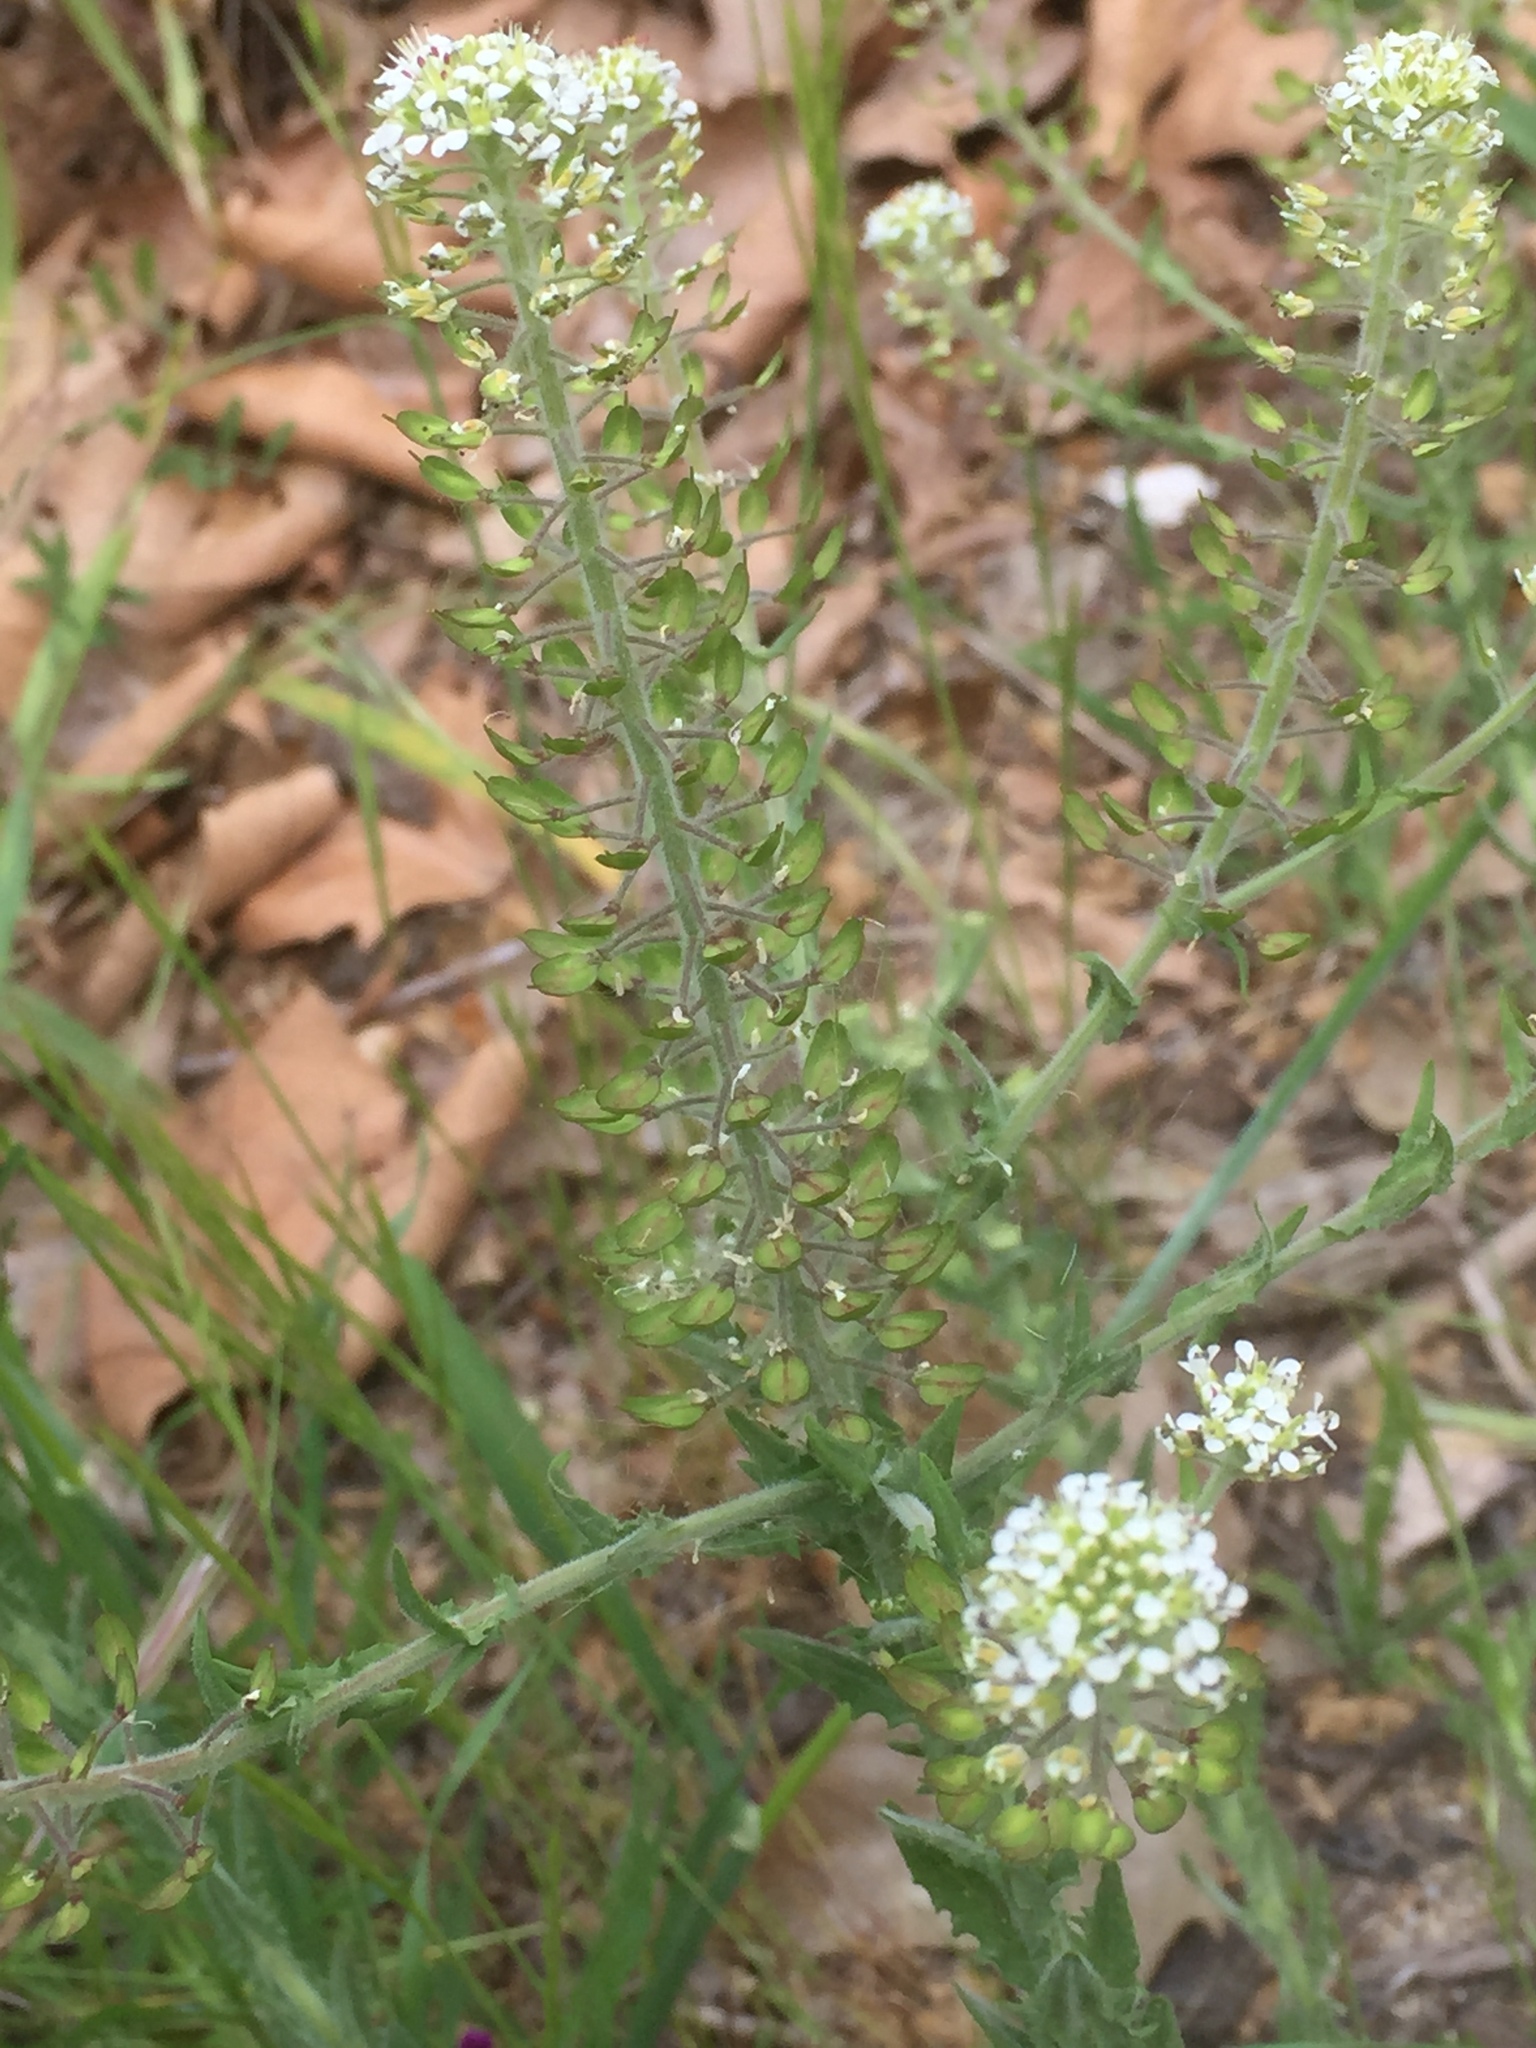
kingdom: Plantae
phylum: Tracheophyta
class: Magnoliopsida
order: Brassicales
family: Brassicaceae
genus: Lepidium
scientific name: Lepidium heterophyllum
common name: Smith's pepperwort
